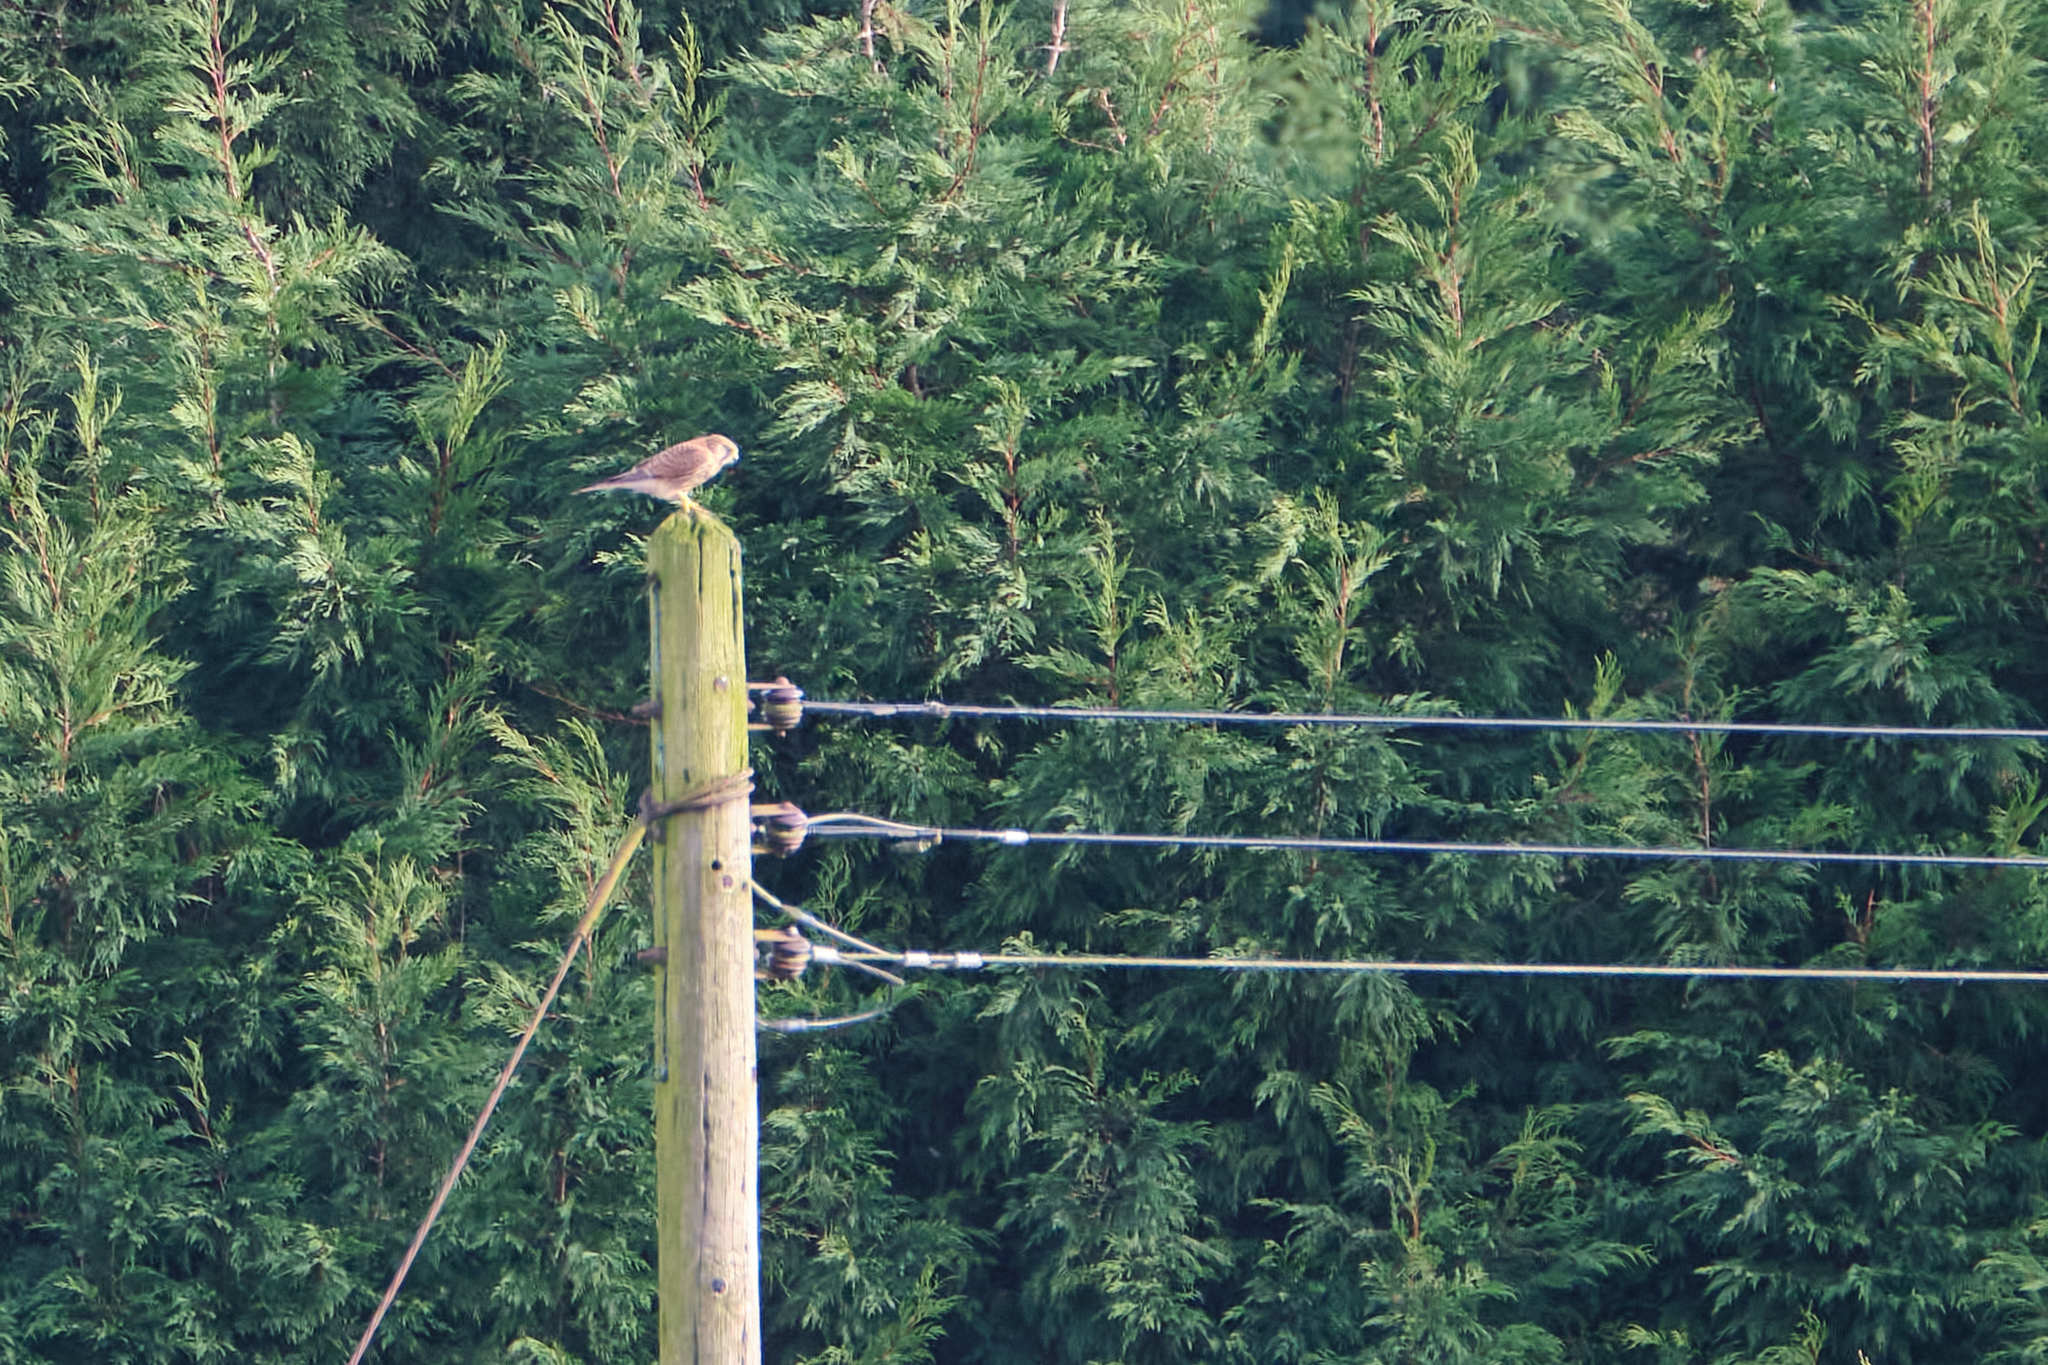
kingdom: Animalia
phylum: Chordata
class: Aves
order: Falconiformes
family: Falconidae
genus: Falco
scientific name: Falco tinnunculus
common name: Common kestrel
